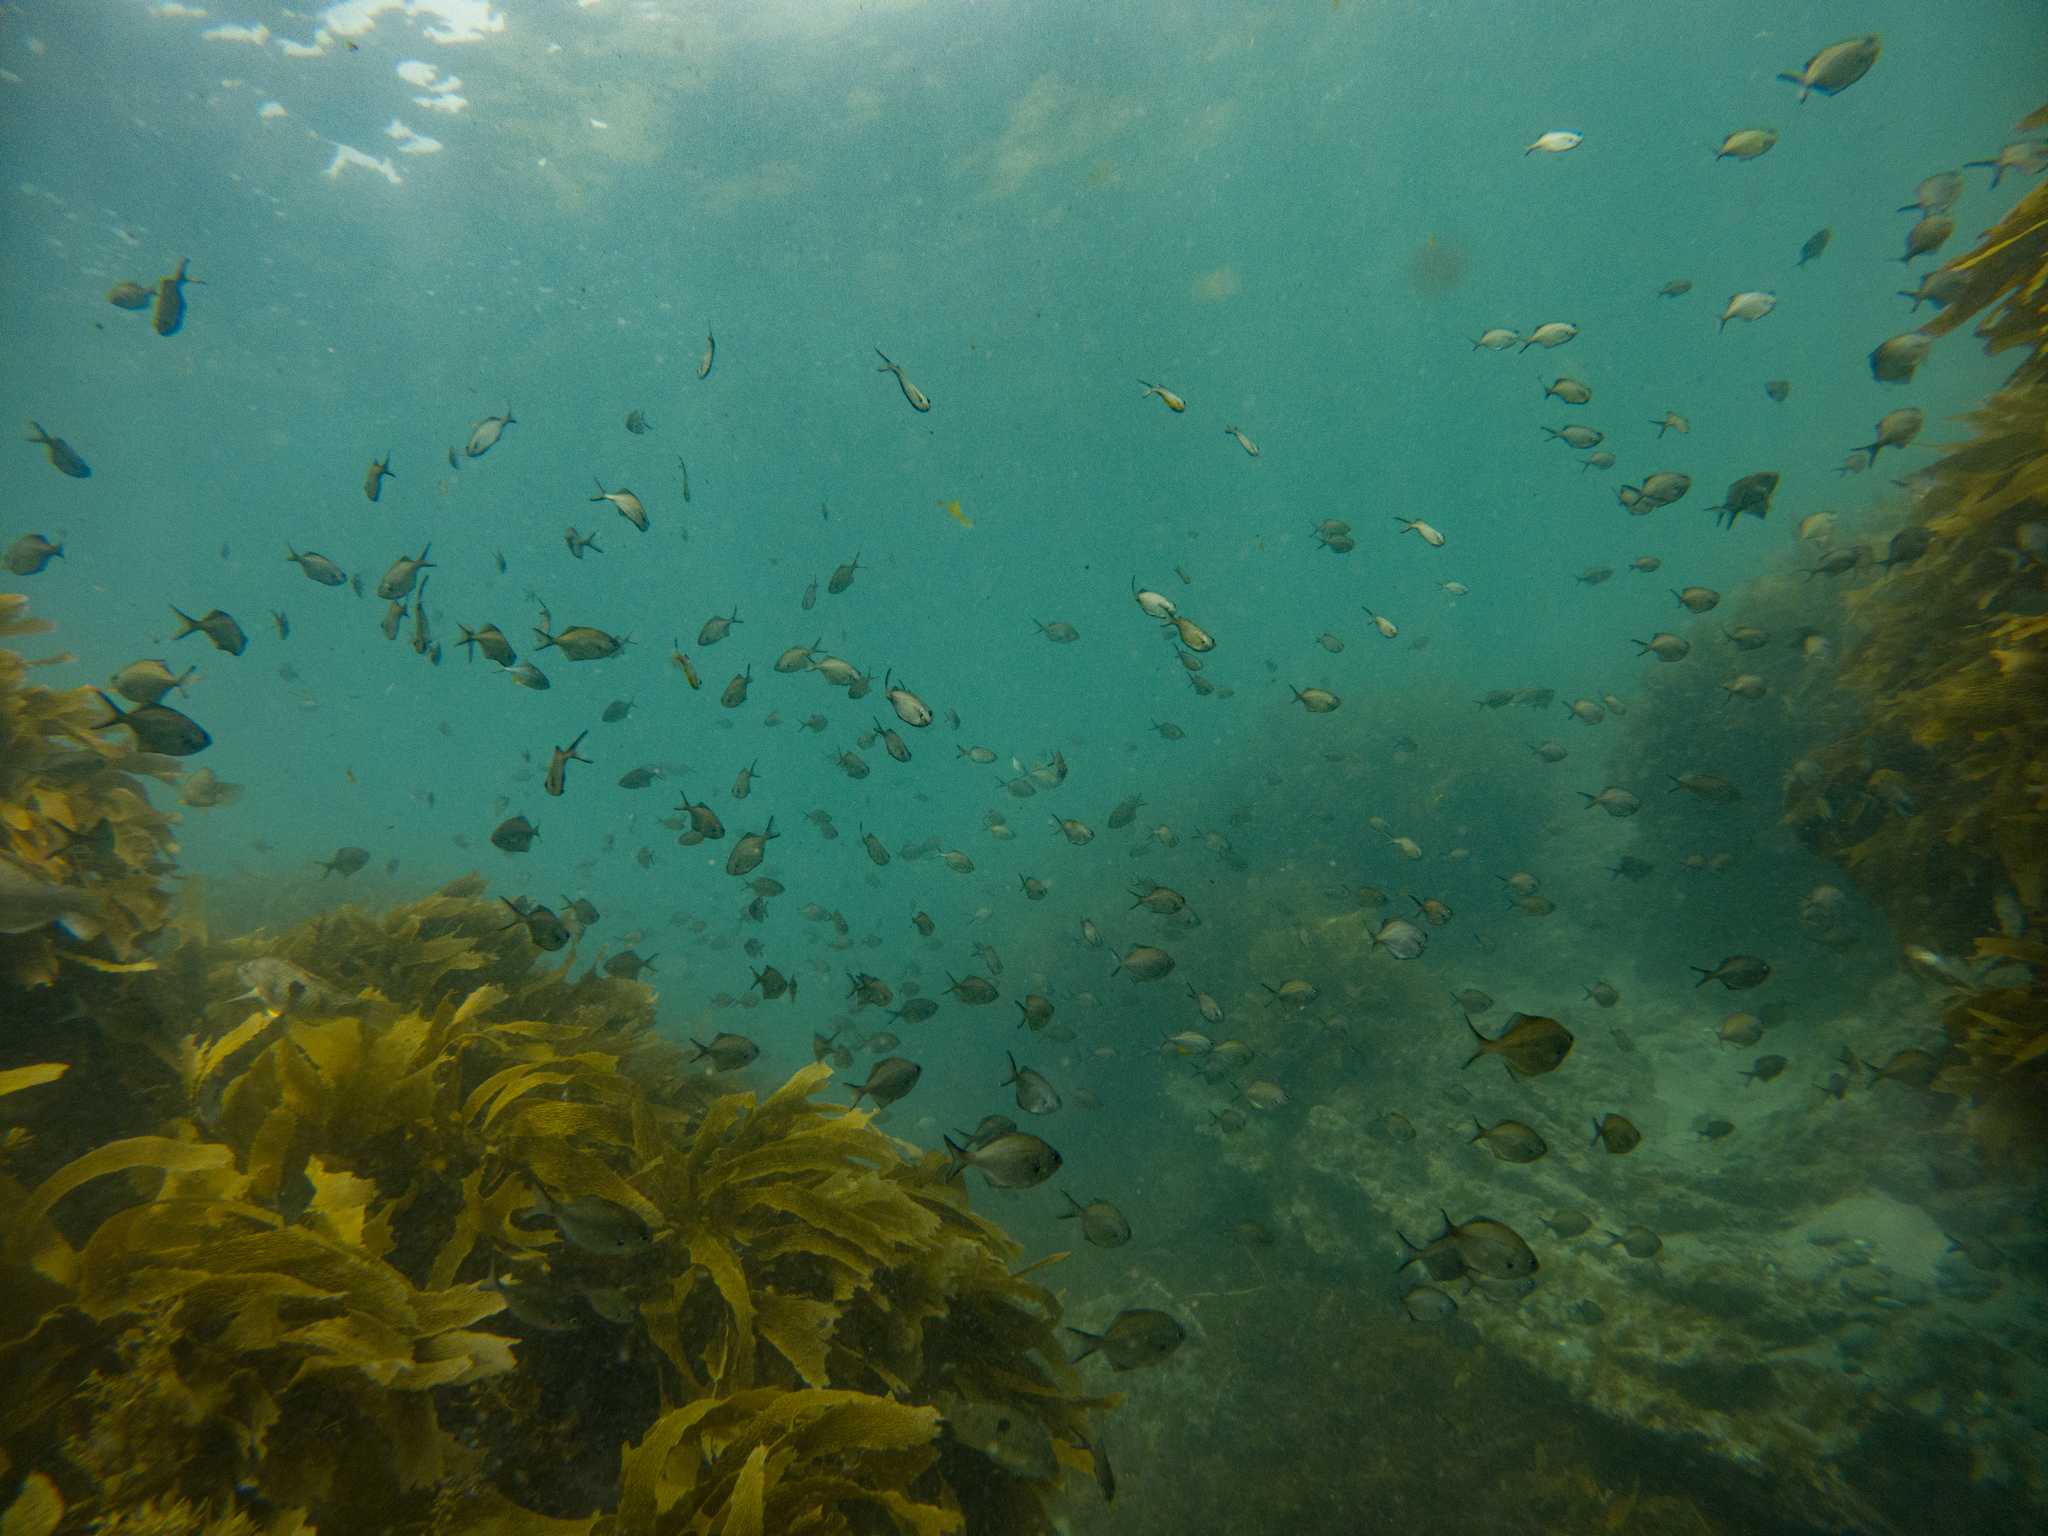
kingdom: Animalia
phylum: Chordata
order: Perciformes
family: Kyphosidae
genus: Scorpis
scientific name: Scorpis lineolata
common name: Sweep
